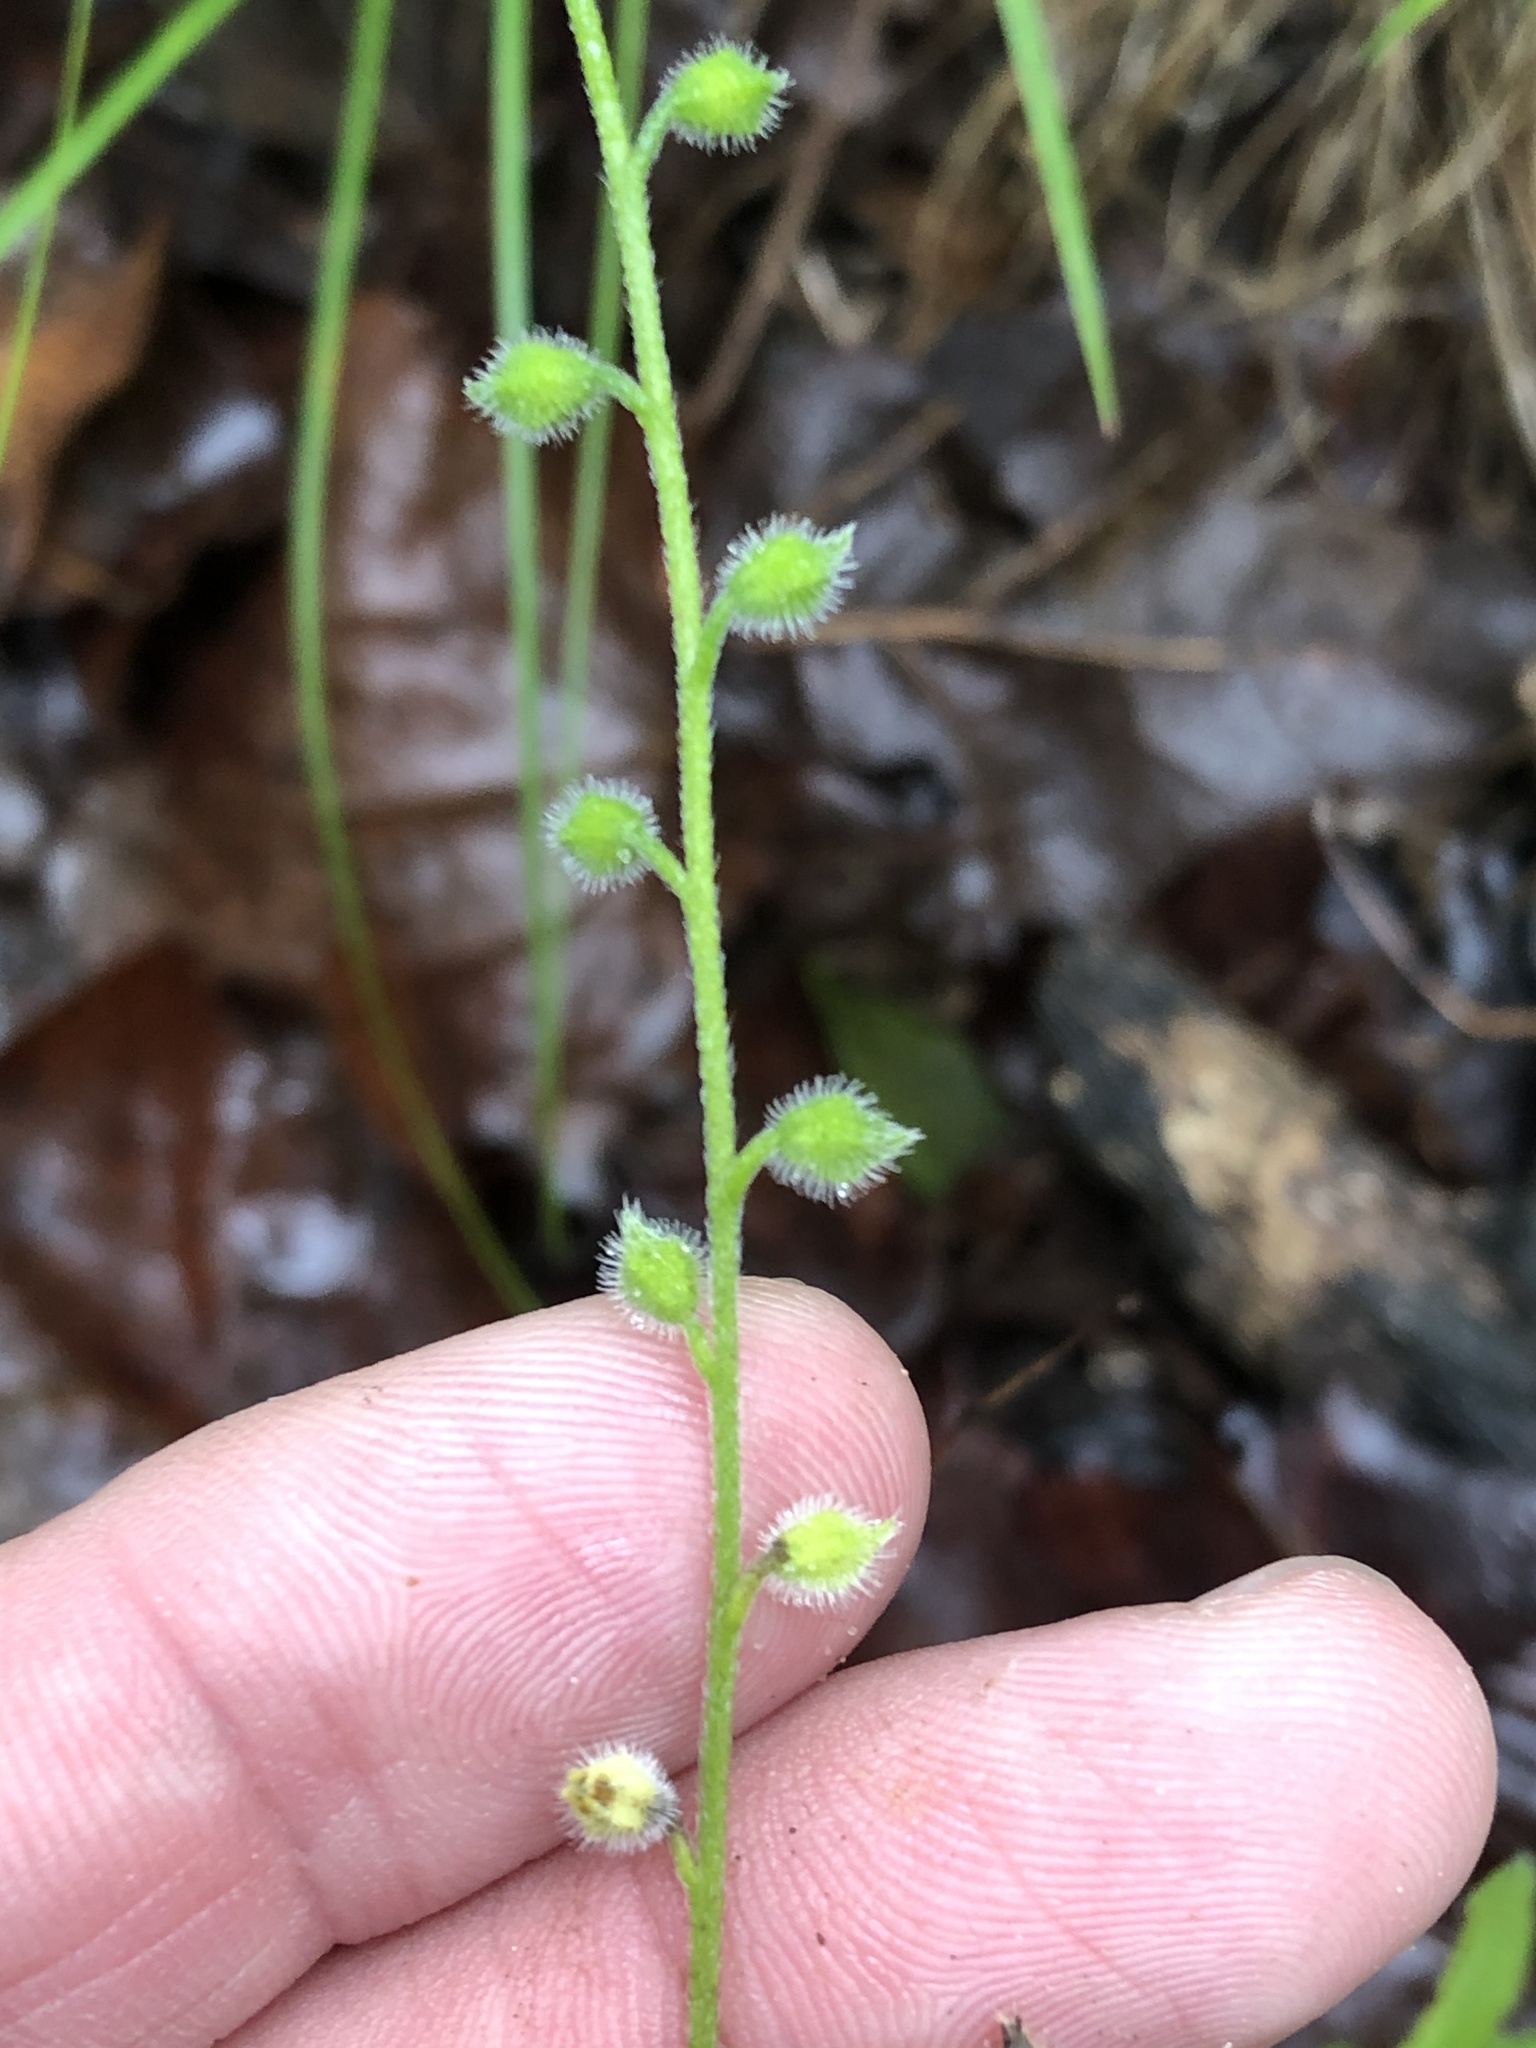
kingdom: Plantae
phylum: Tracheophyta
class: Magnoliopsida
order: Boraginales
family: Boraginaceae
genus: Myosotis
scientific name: Myosotis macrosperma
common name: Large-seed forget-me-not
